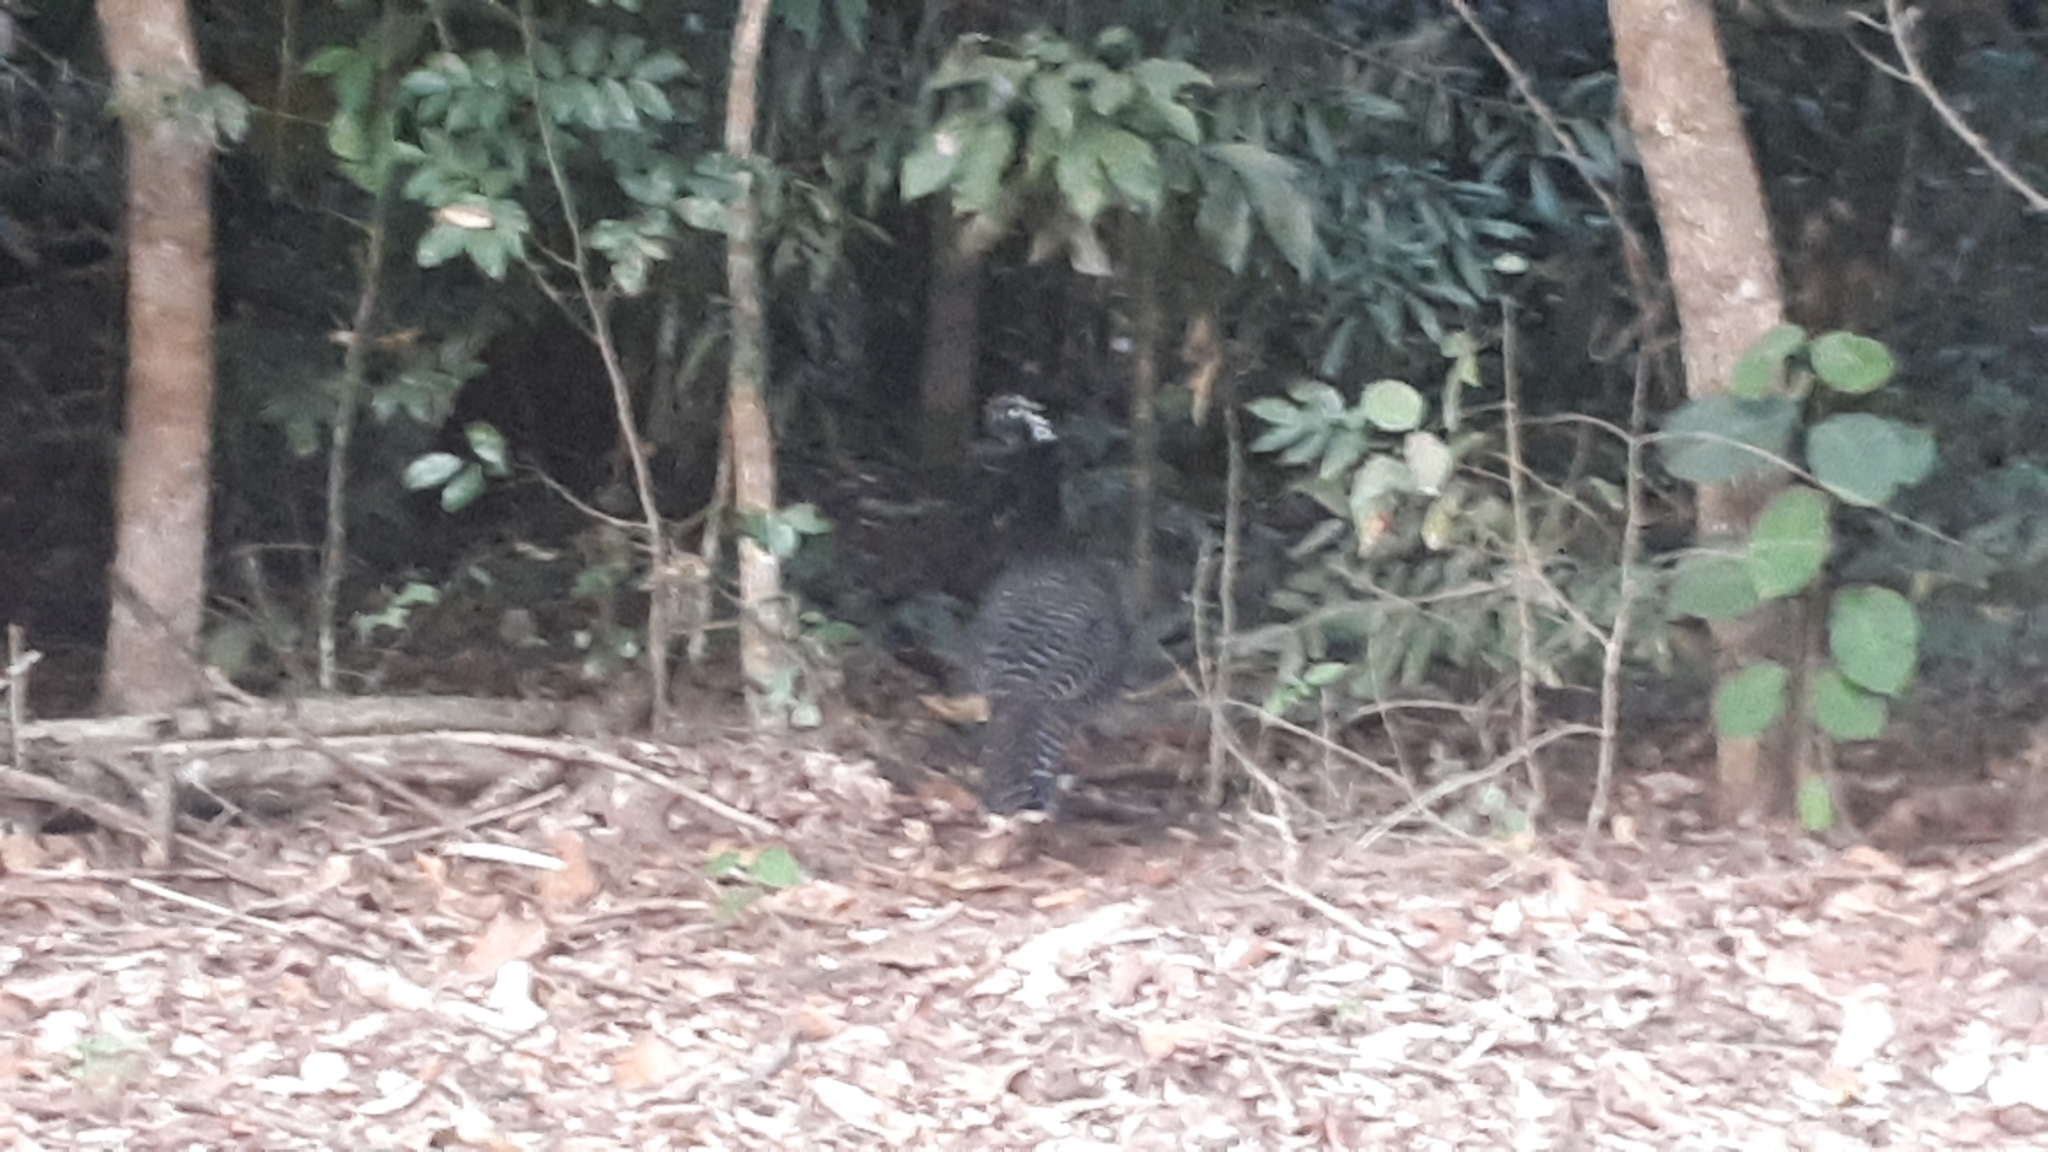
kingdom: Animalia
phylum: Chordata
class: Aves
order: Galliformes
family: Cracidae
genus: Crax
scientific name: Crax fasciolata
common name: Bare-faced curassow
